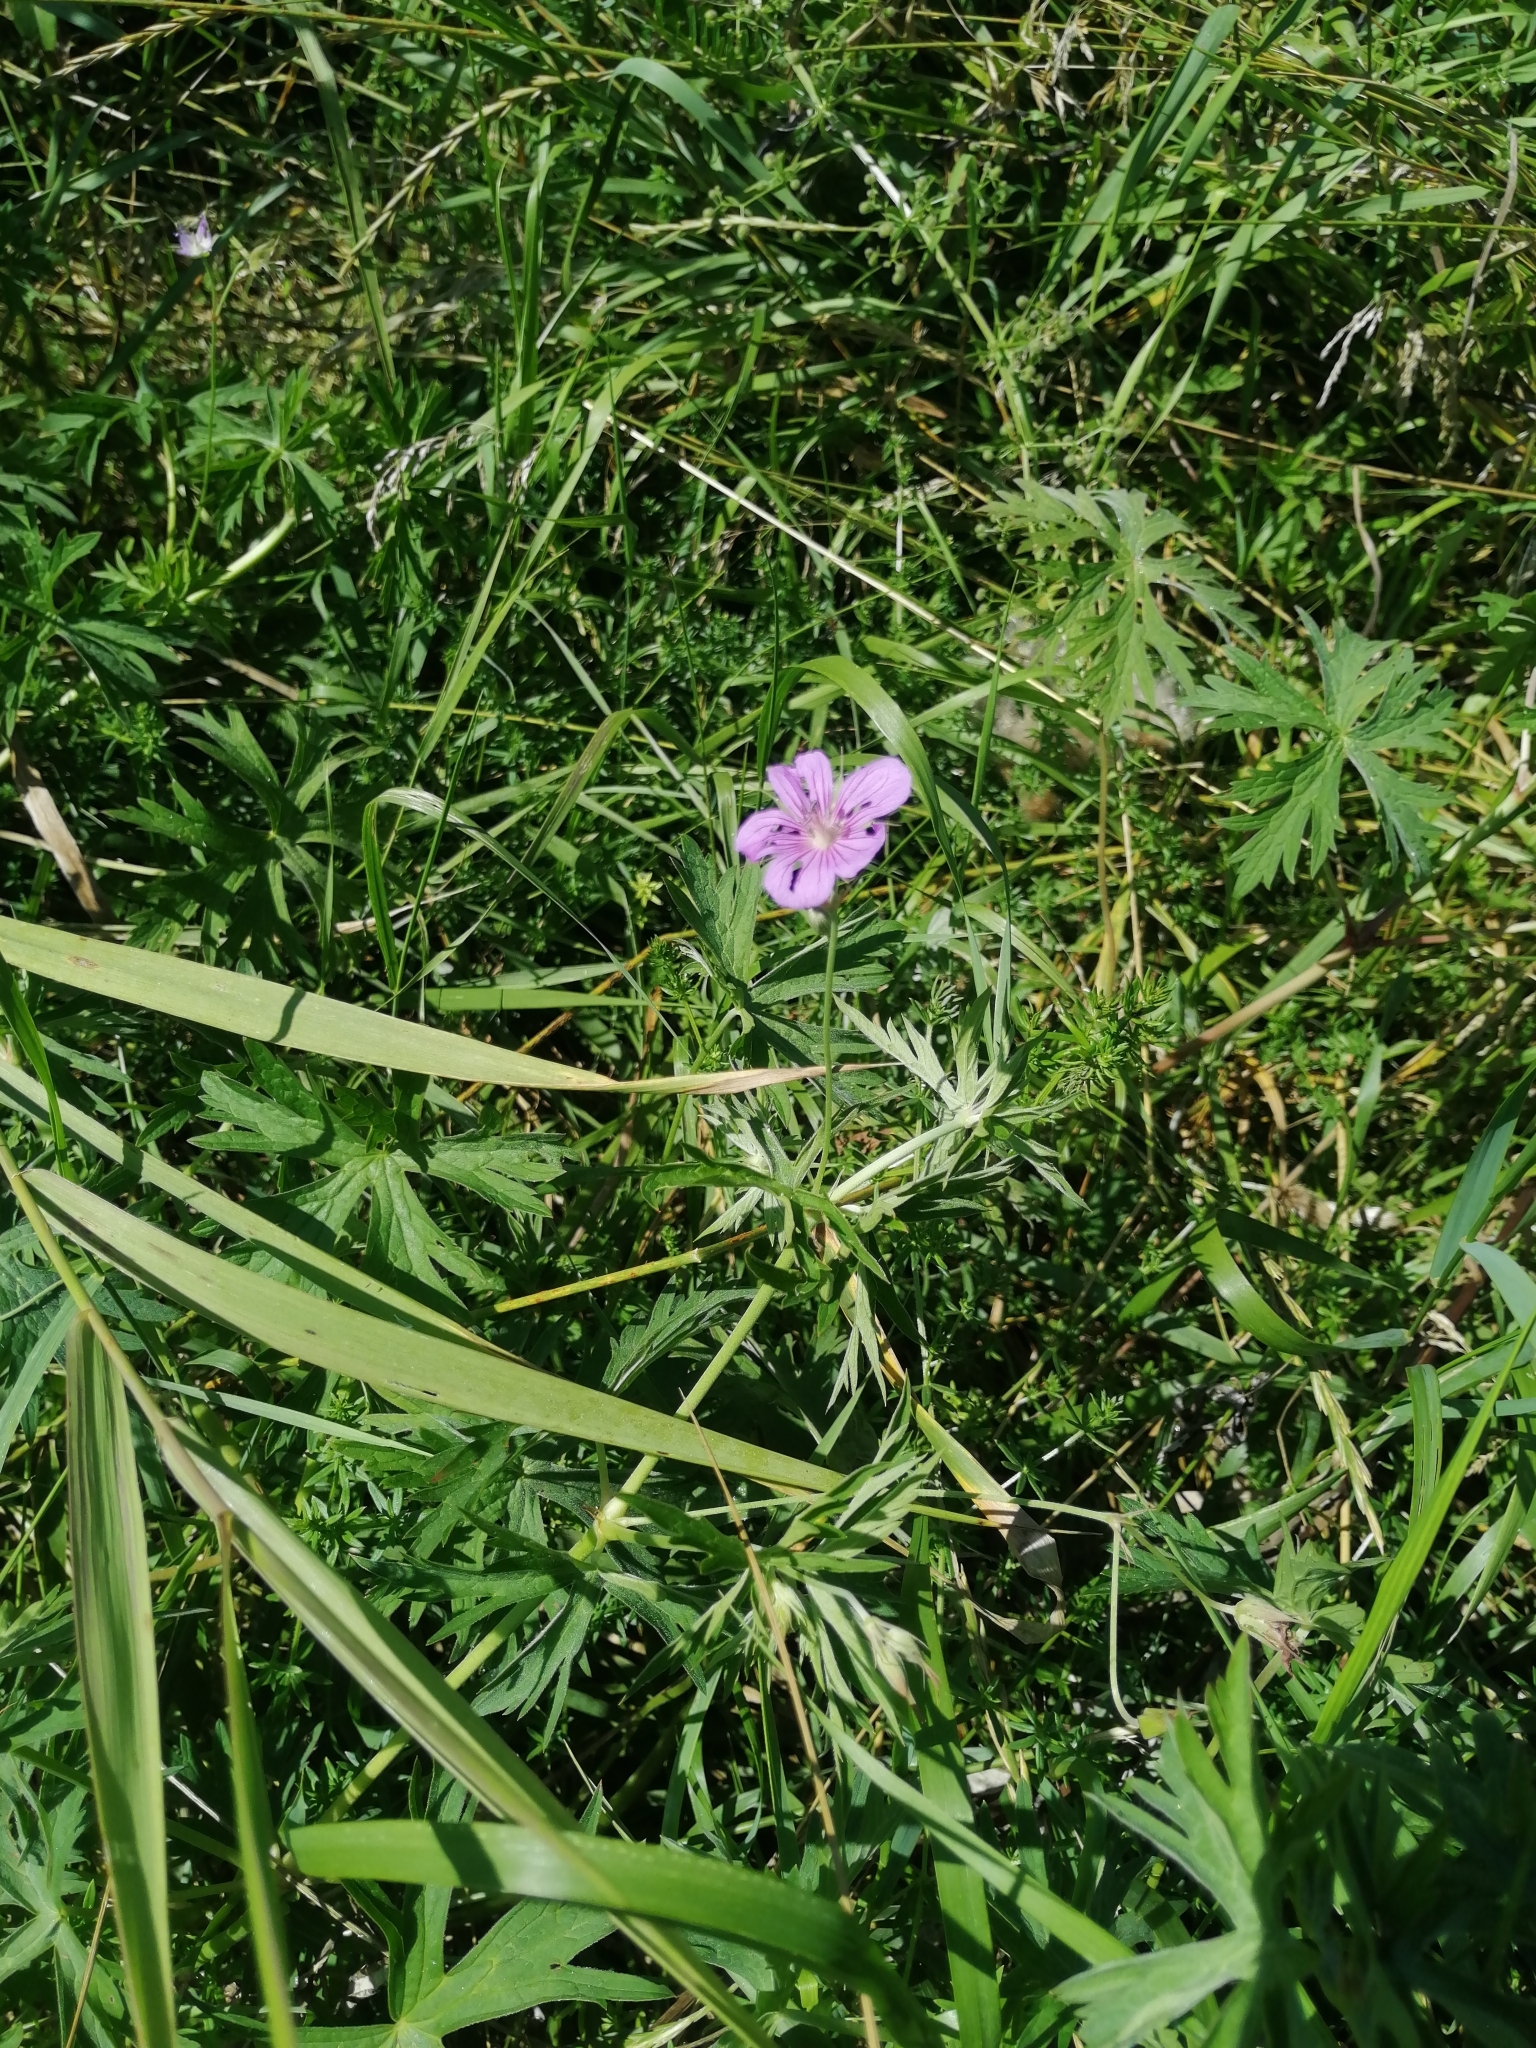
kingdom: Plantae
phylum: Tracheophyta
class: Magnoliopsida
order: Geraniales
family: Geraniaceae
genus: Geranium
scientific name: Geranium collinum
